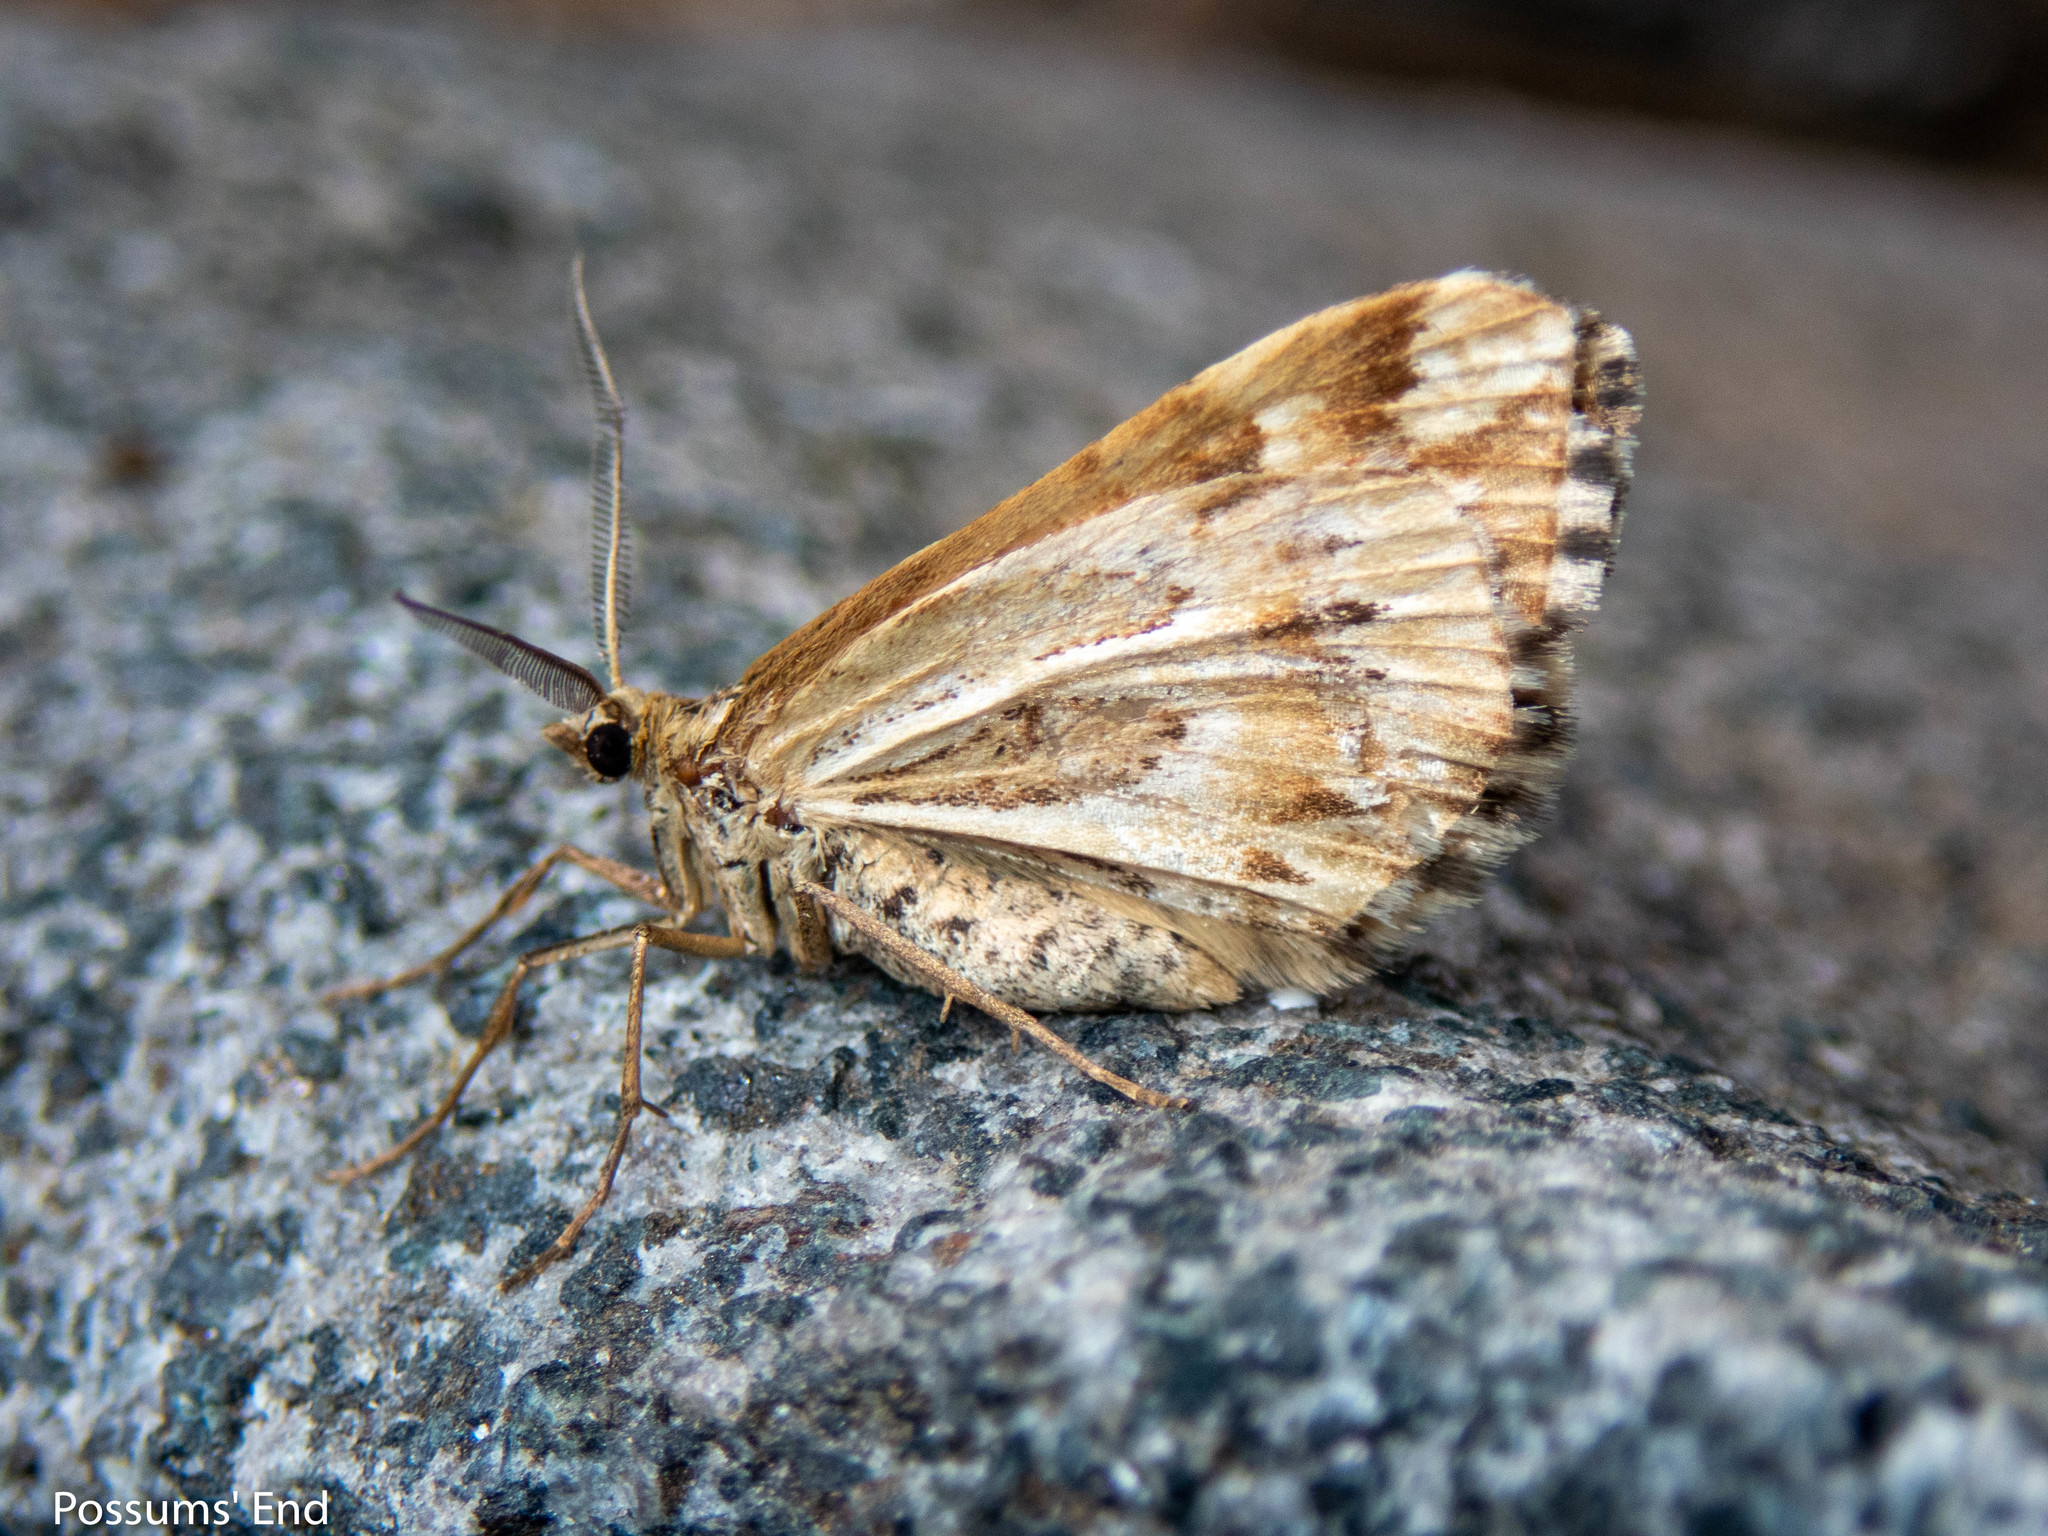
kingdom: Animalia
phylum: Arthropoda
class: Insecta
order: Lepidoptera
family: Geometridae
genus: Asaphodes
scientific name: Asaphodes clarata
